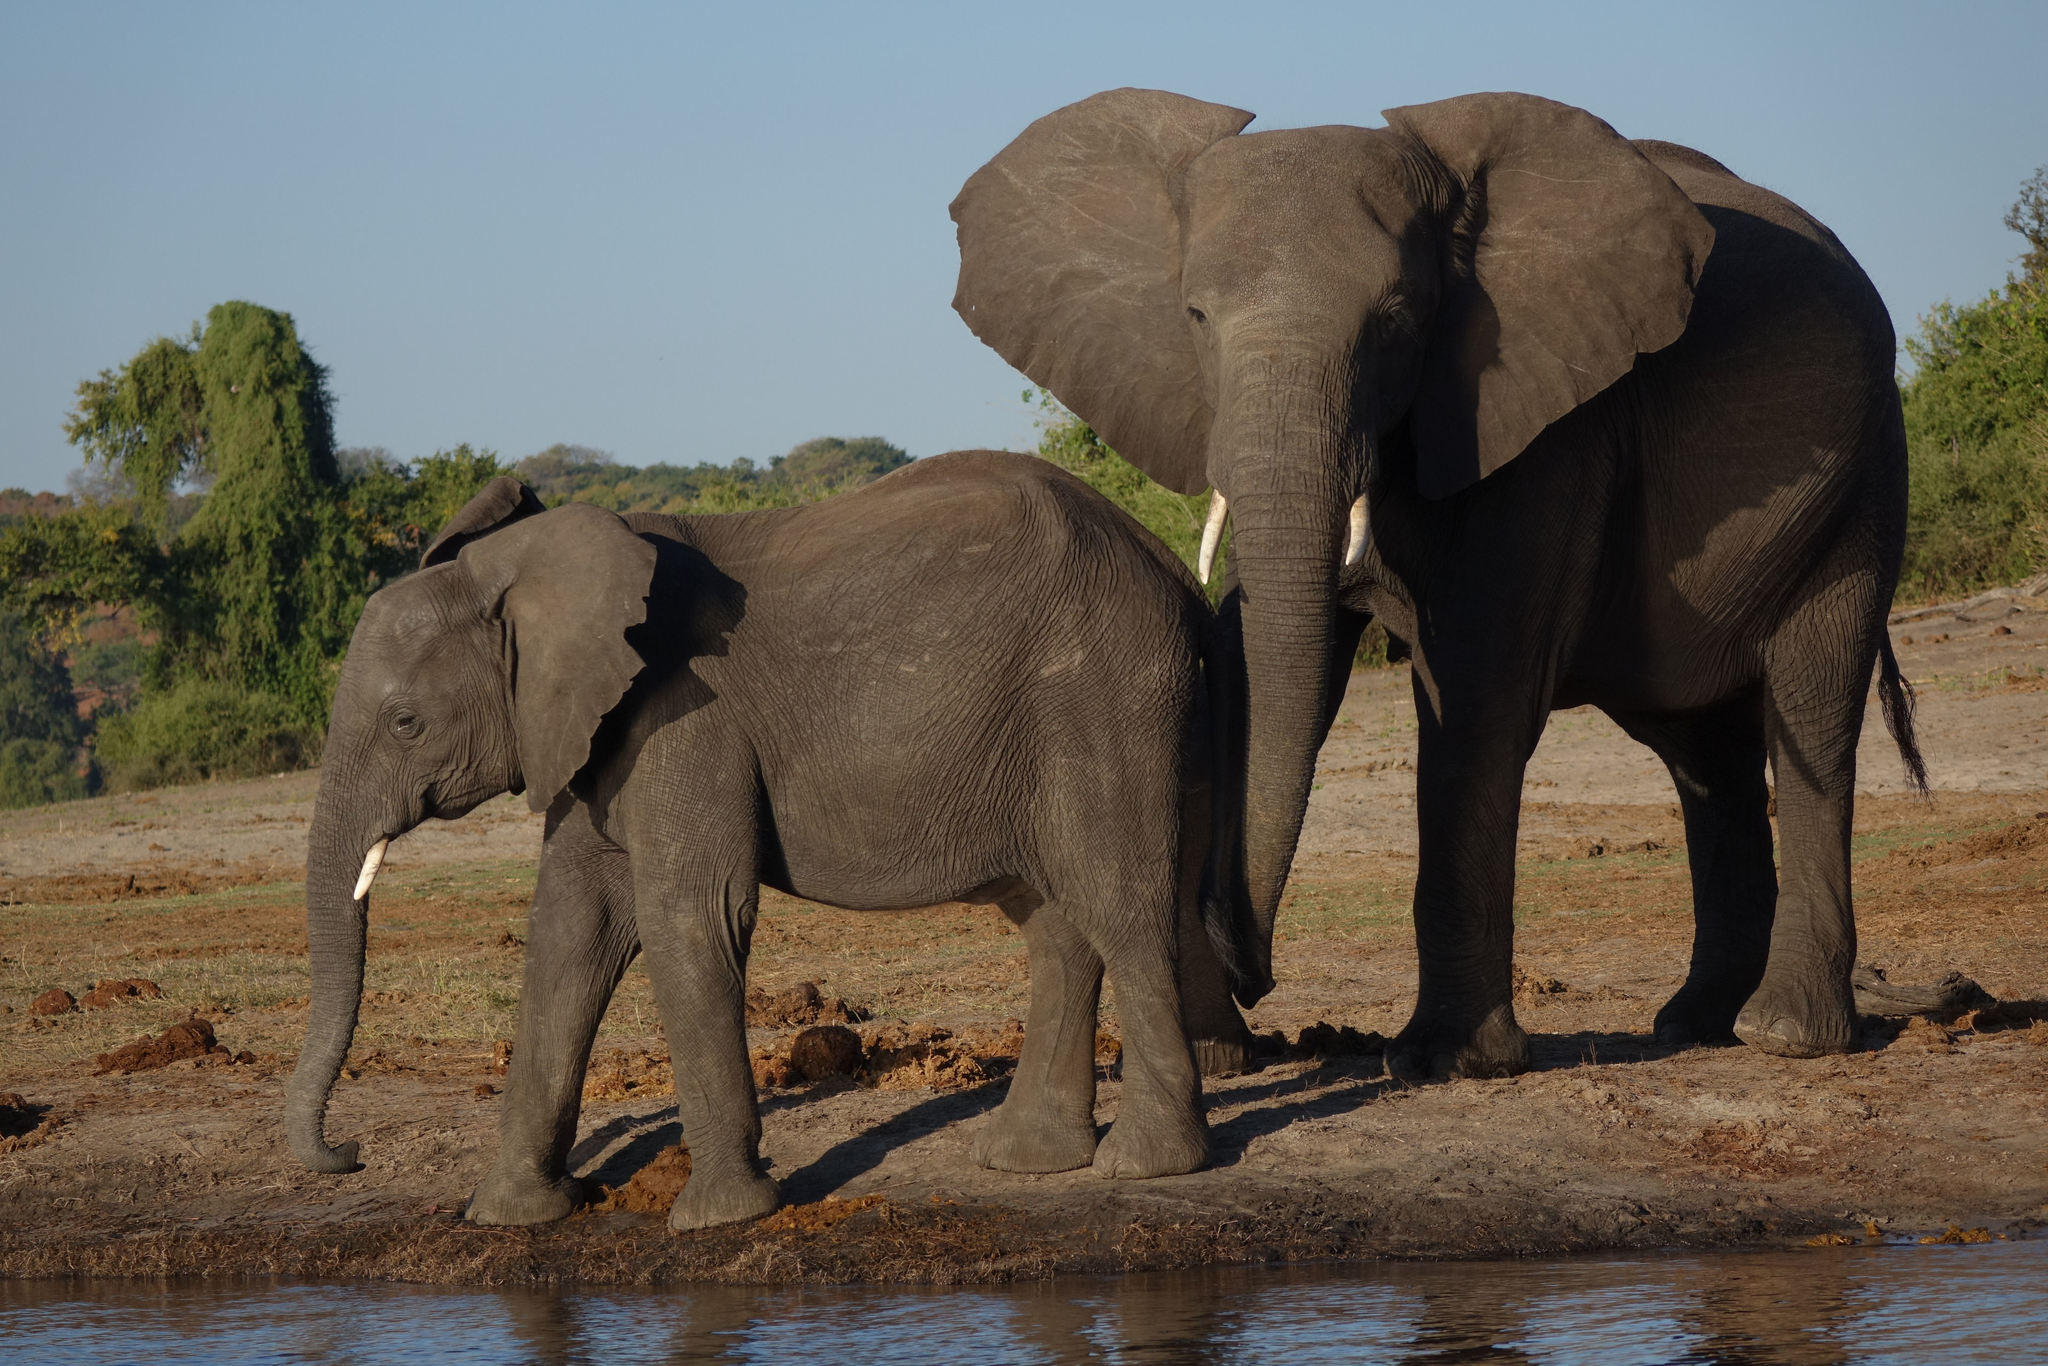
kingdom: Animalia
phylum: Chordata
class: Mammalia
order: Proboscidea
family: Elephantidae
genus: Loxodonta
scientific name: Loxodonta africana
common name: African elephant
